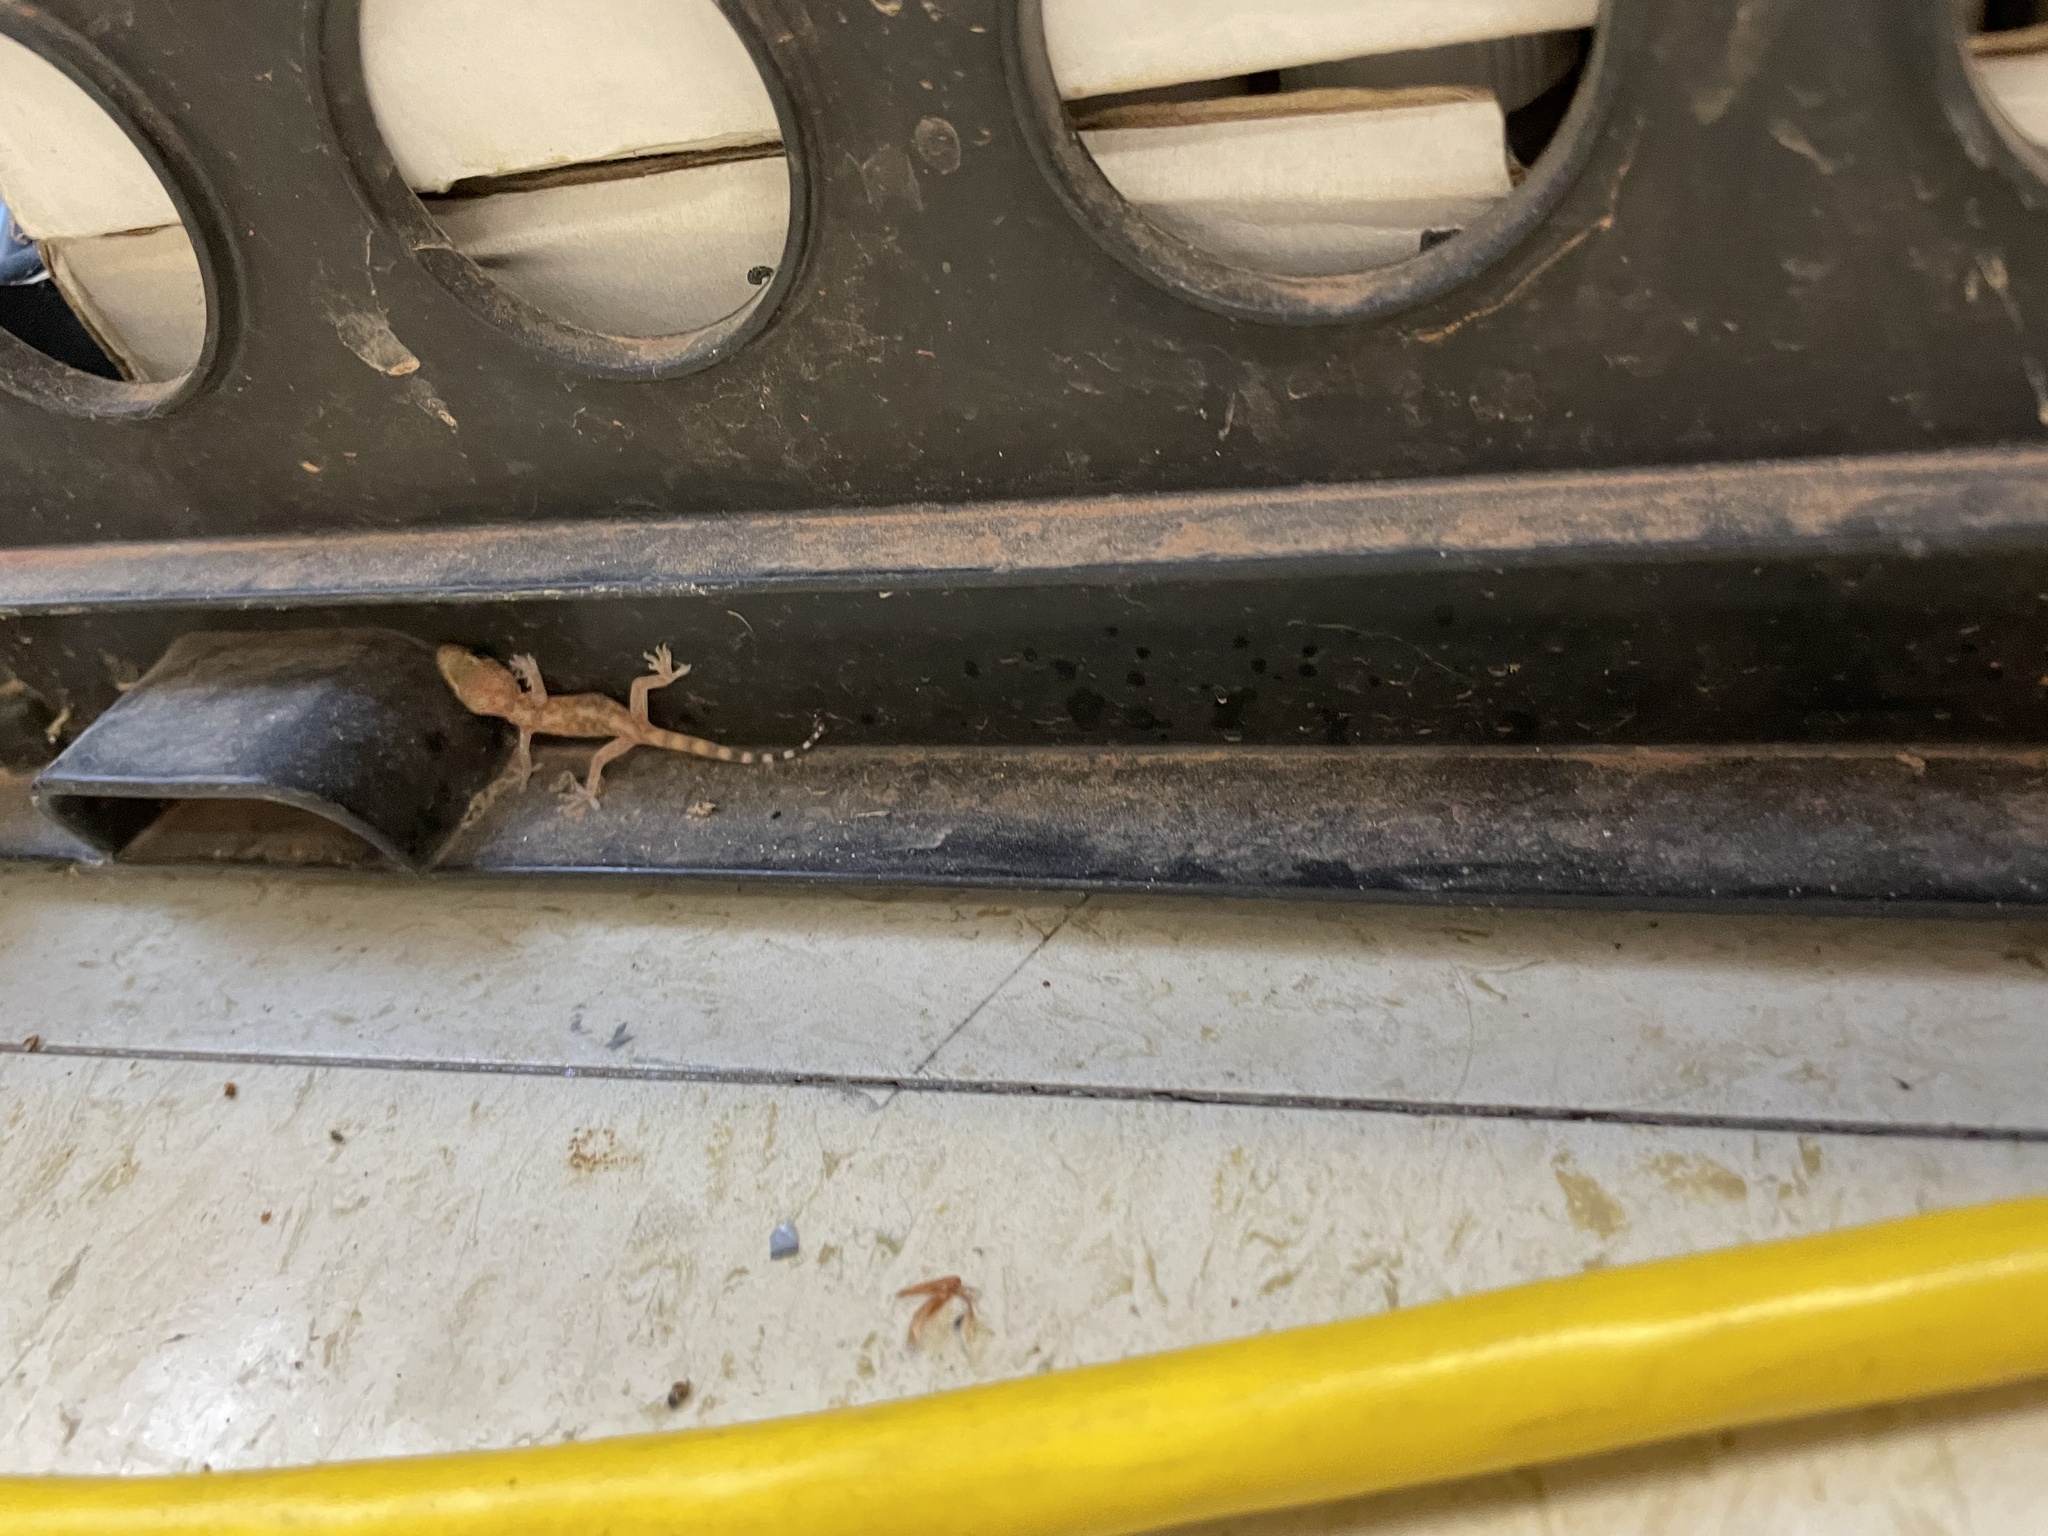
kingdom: Animalia
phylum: Chordata
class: Squamata
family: Gekkonidae
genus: Hemidactylus
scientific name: Hemidactylus turcicus
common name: Turkish gecko
